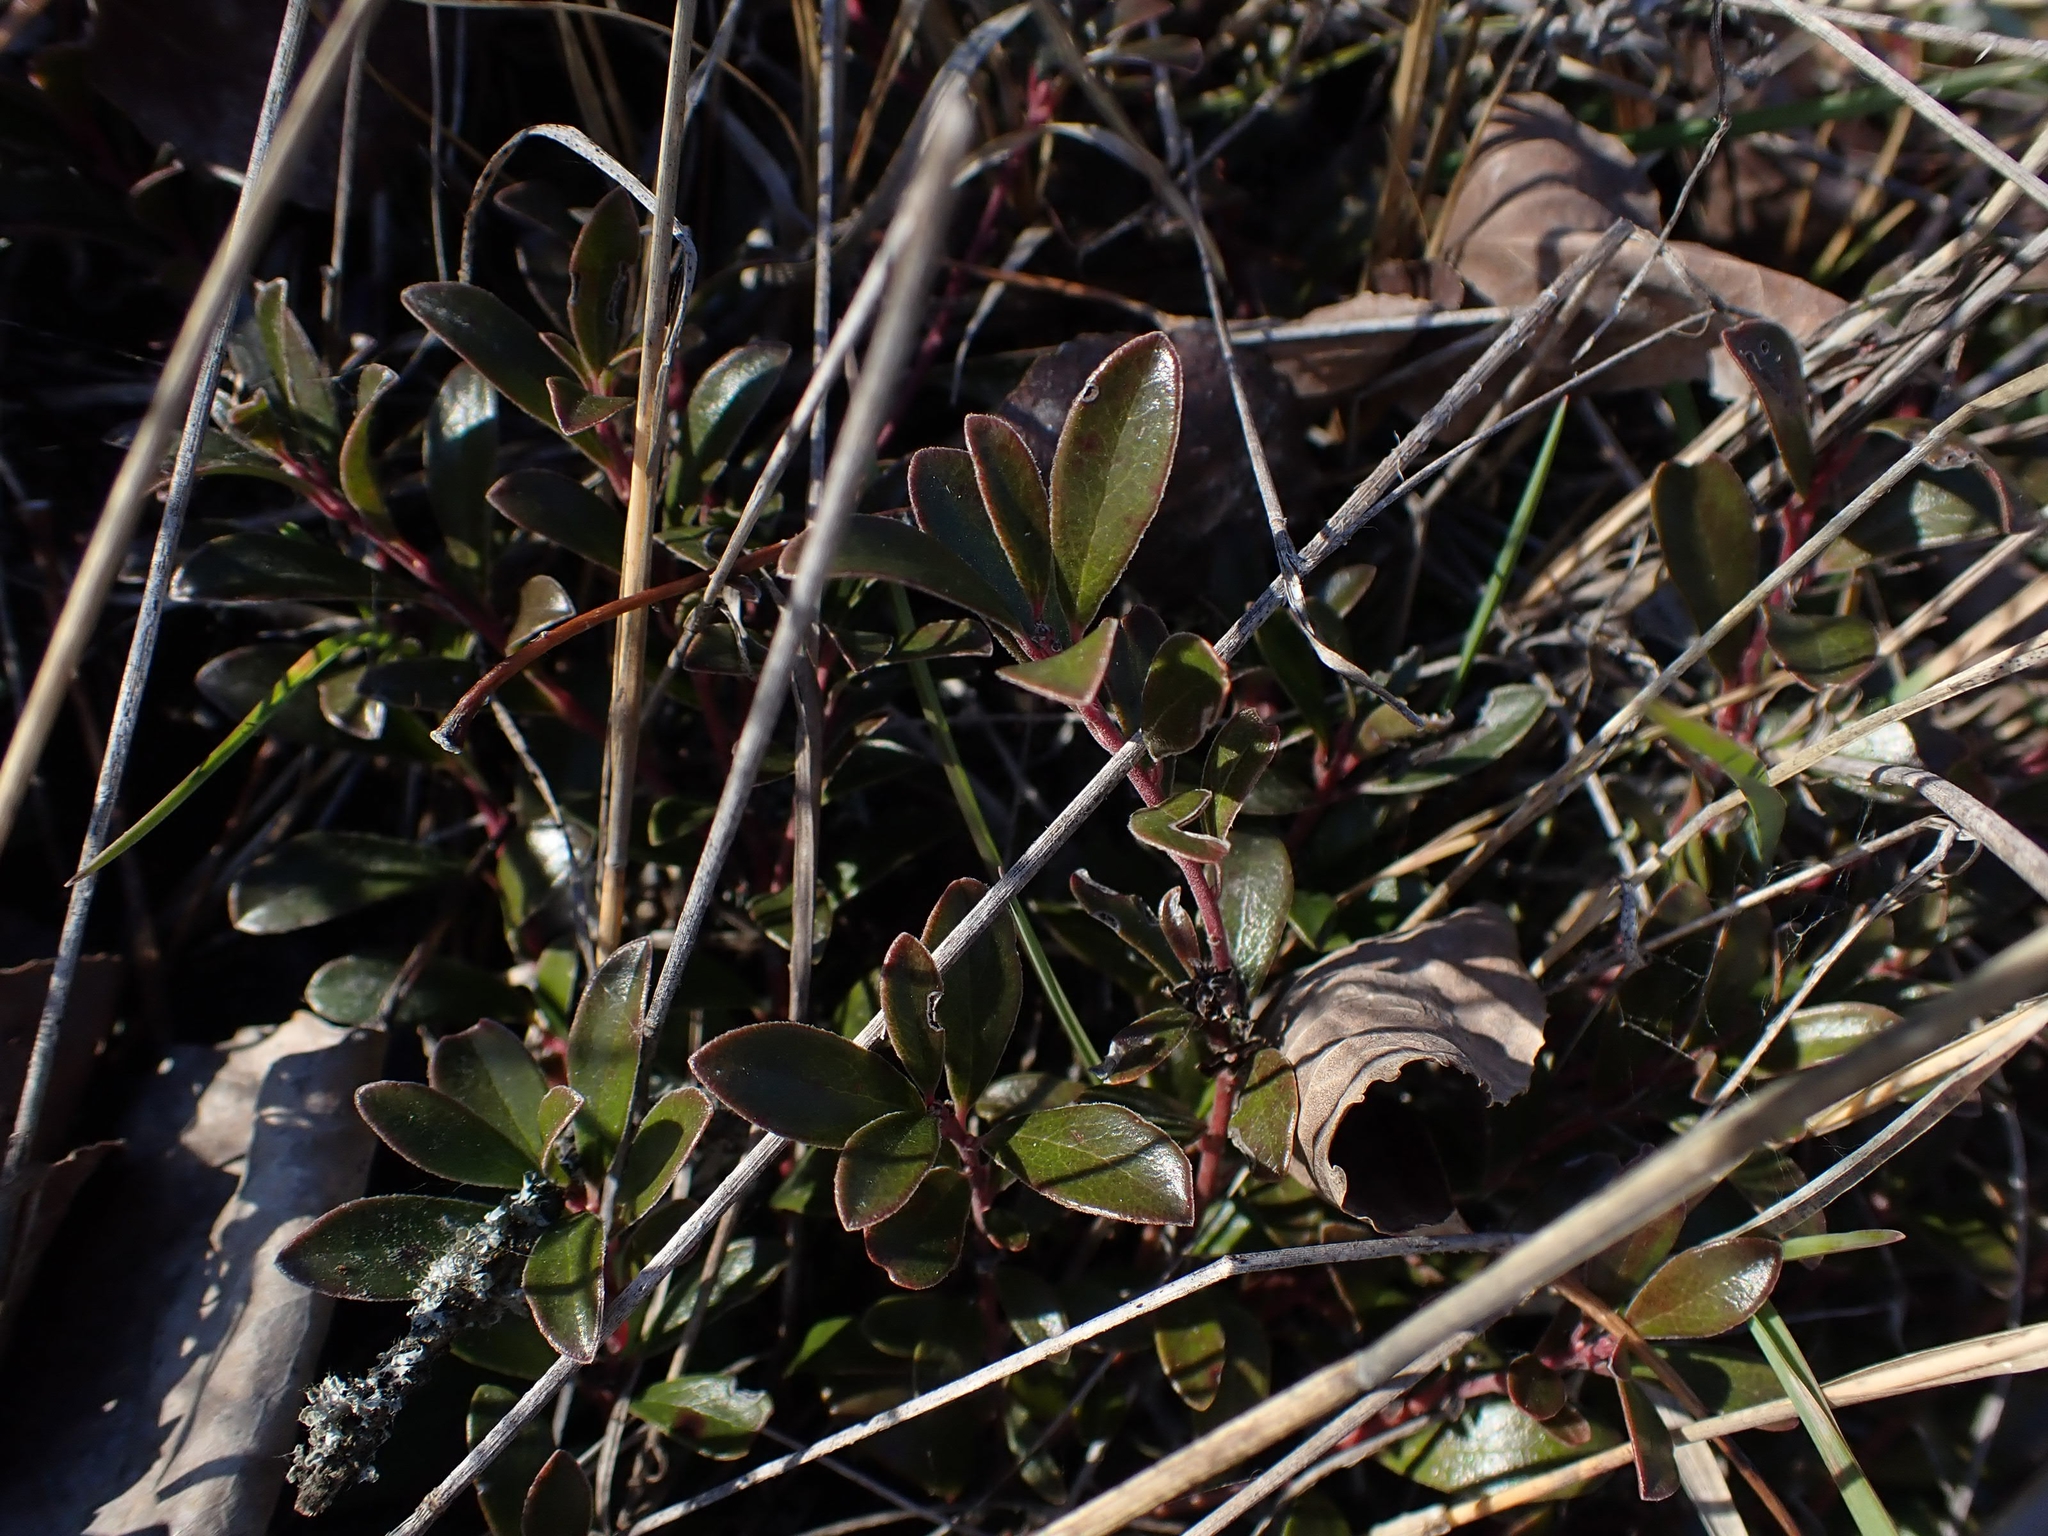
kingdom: Plantae
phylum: Tracheophyta
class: Magnoliopsida
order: Ericales
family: Ericaceae
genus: Arctostaphylos
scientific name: Arctostaphylos uva-ursi
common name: Bearberry
